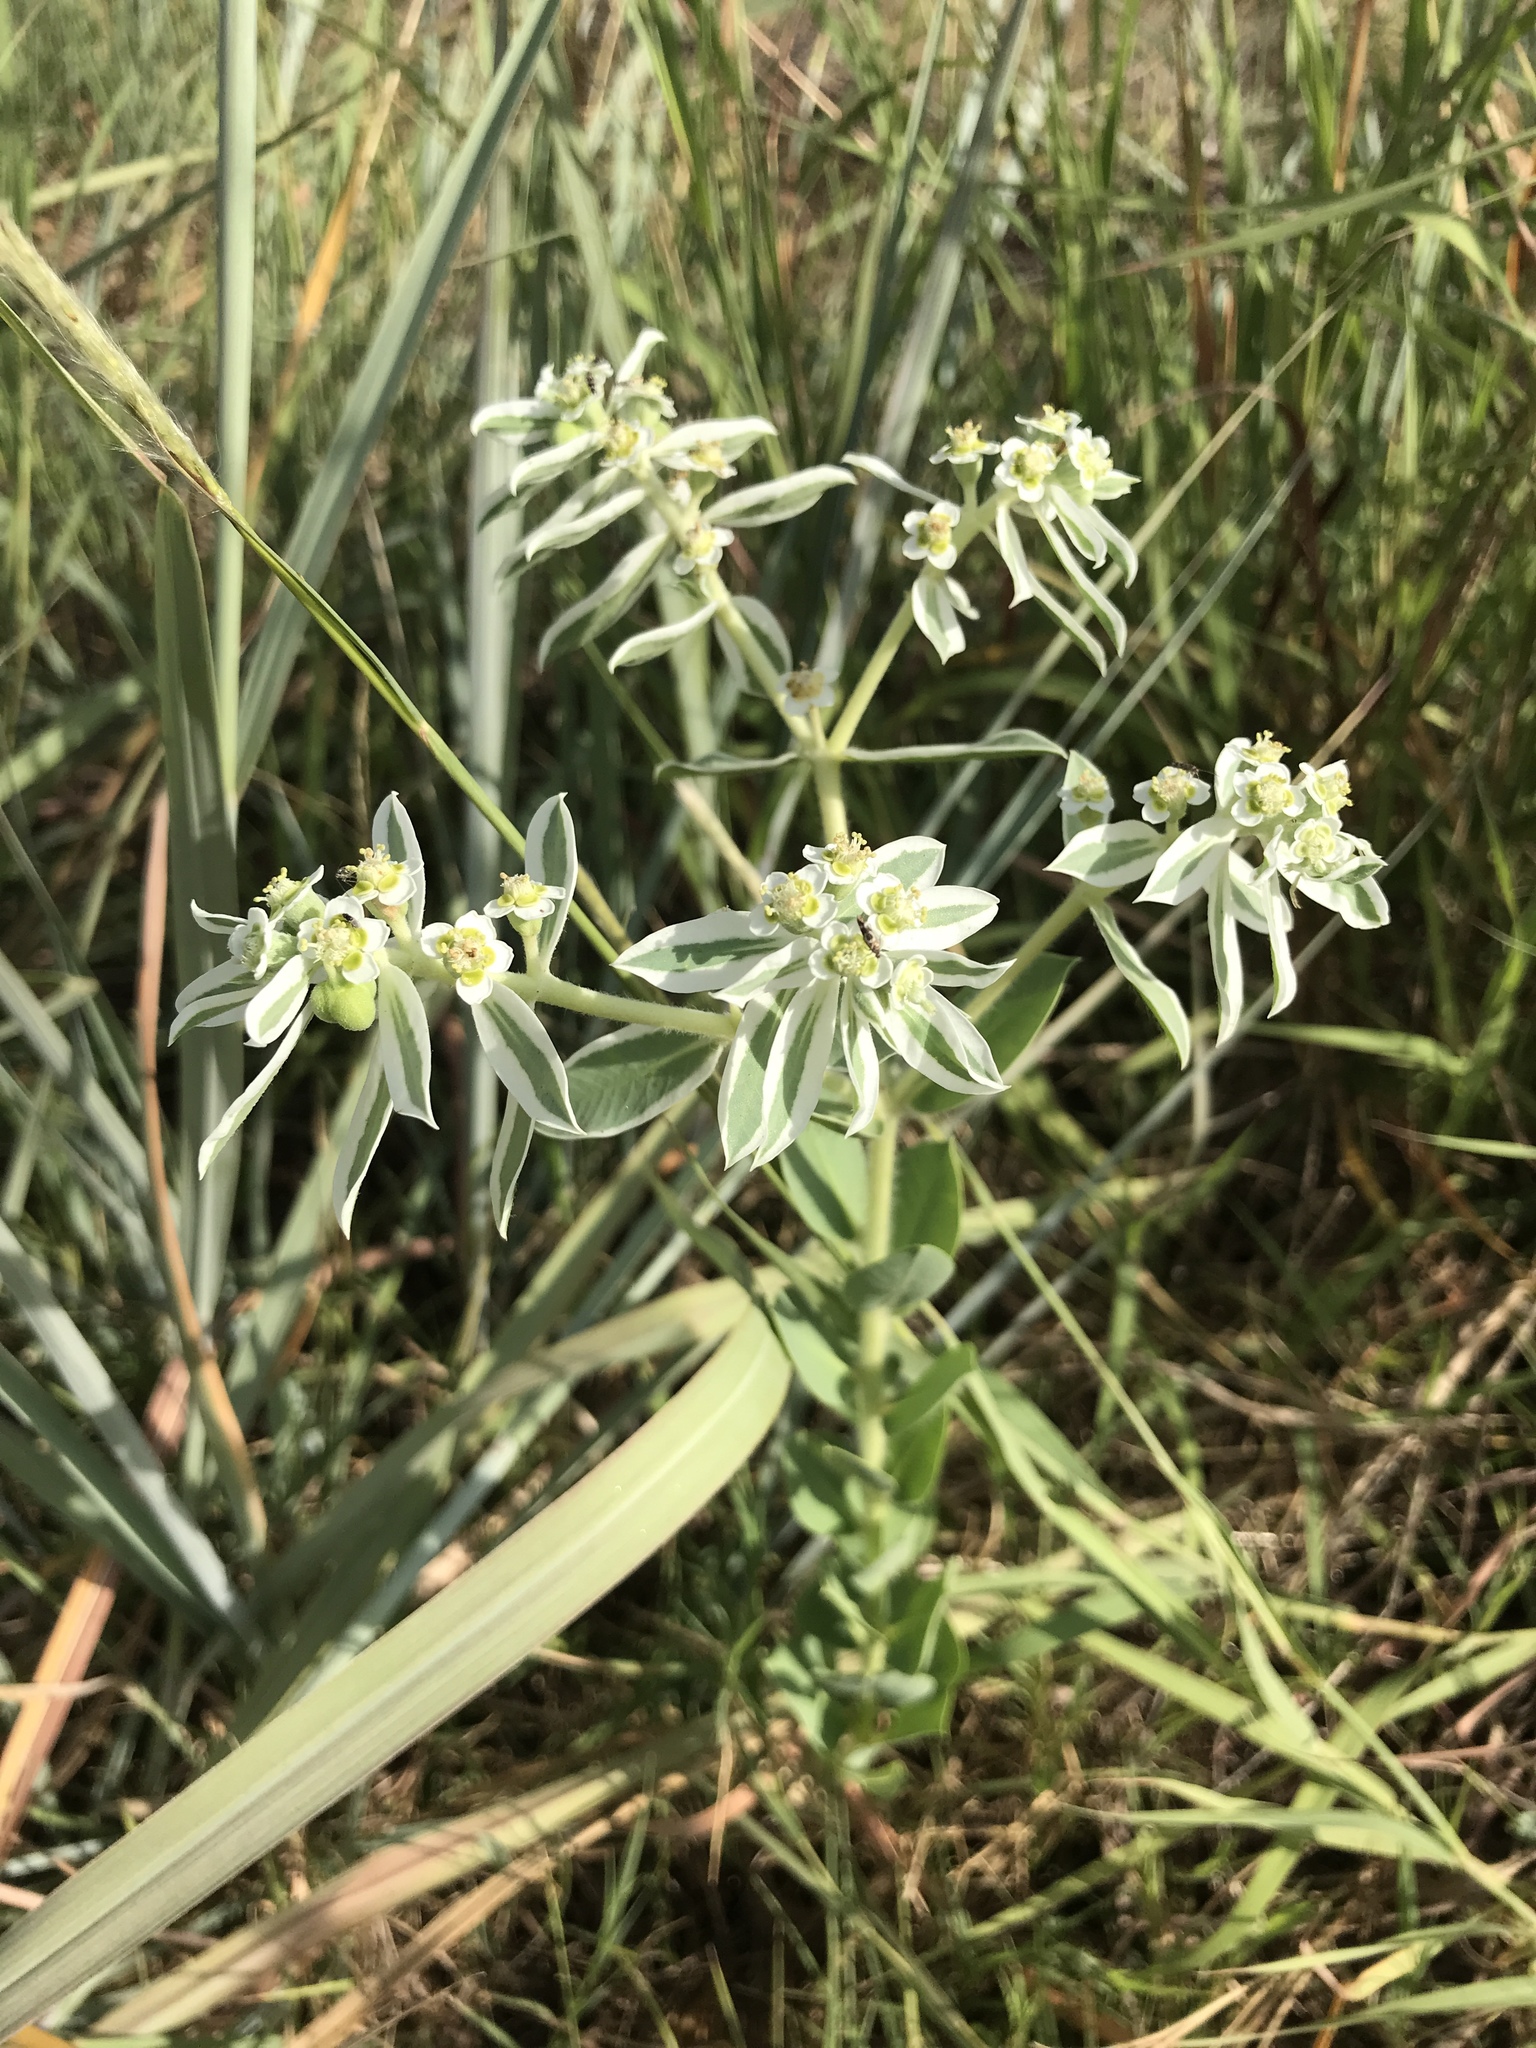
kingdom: Plantae
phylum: Tracheophyta
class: Magnoliopsida
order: Malpighiales
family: Euphorbiaceae
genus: Euphorbia
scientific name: Euphorbia marginata
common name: Ghostweed
